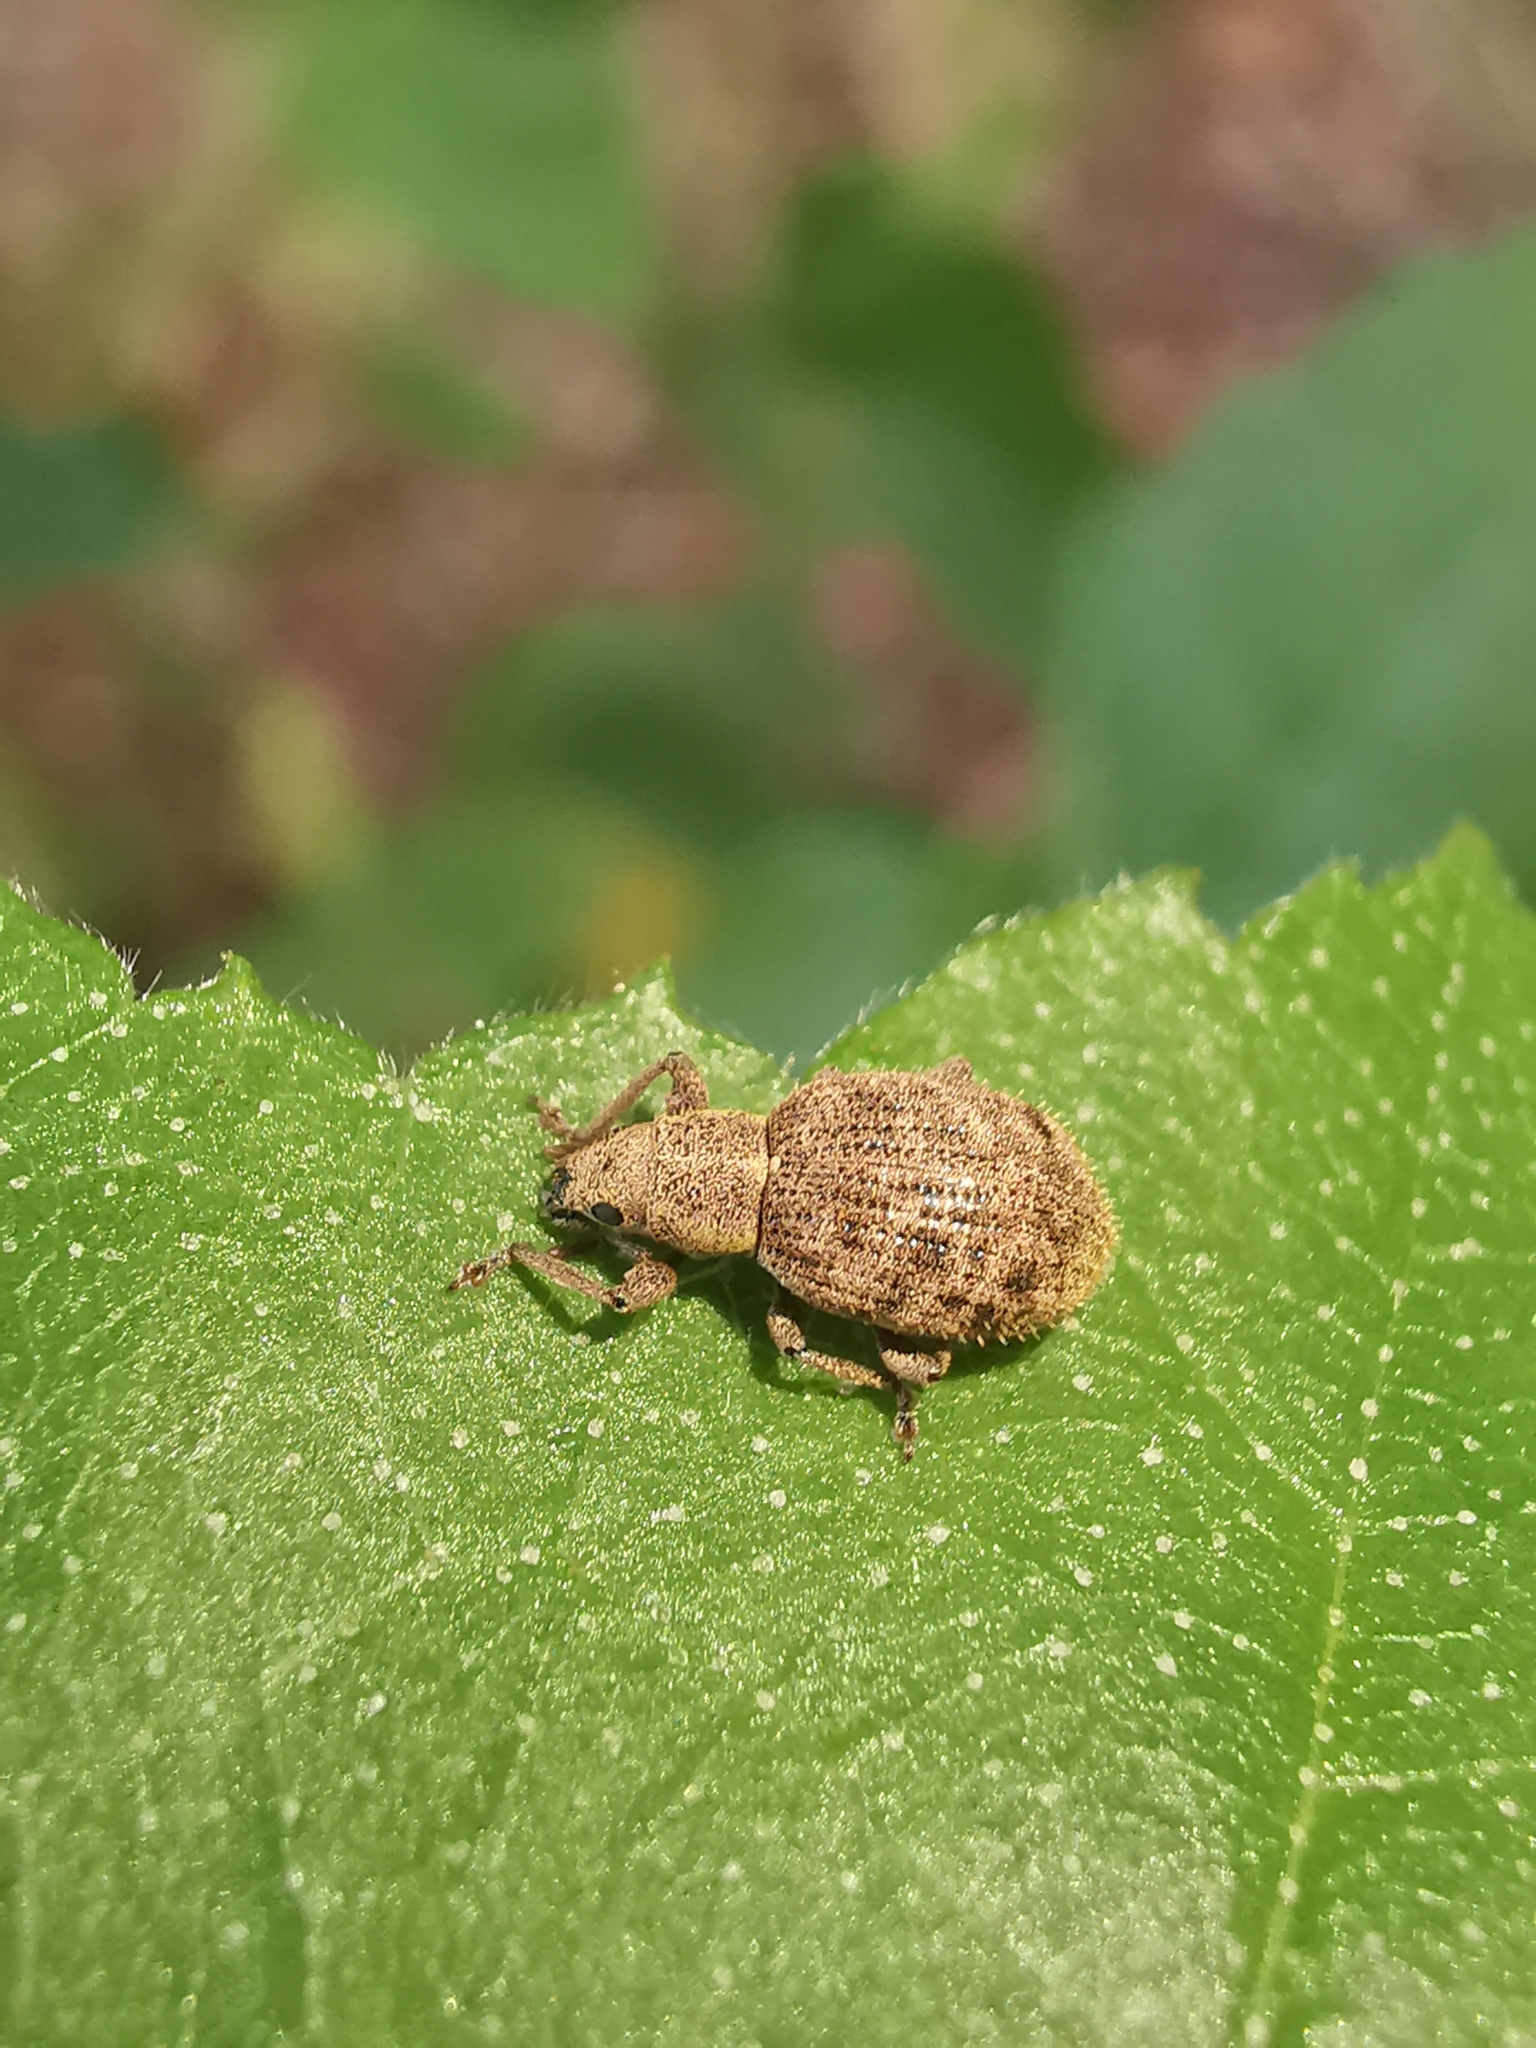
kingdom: Animalia
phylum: Arthropoda
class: Insecta
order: Coleoptera
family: Curculionidae
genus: Sciaphilus
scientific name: Sciaphilus asperatus
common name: Weevil
